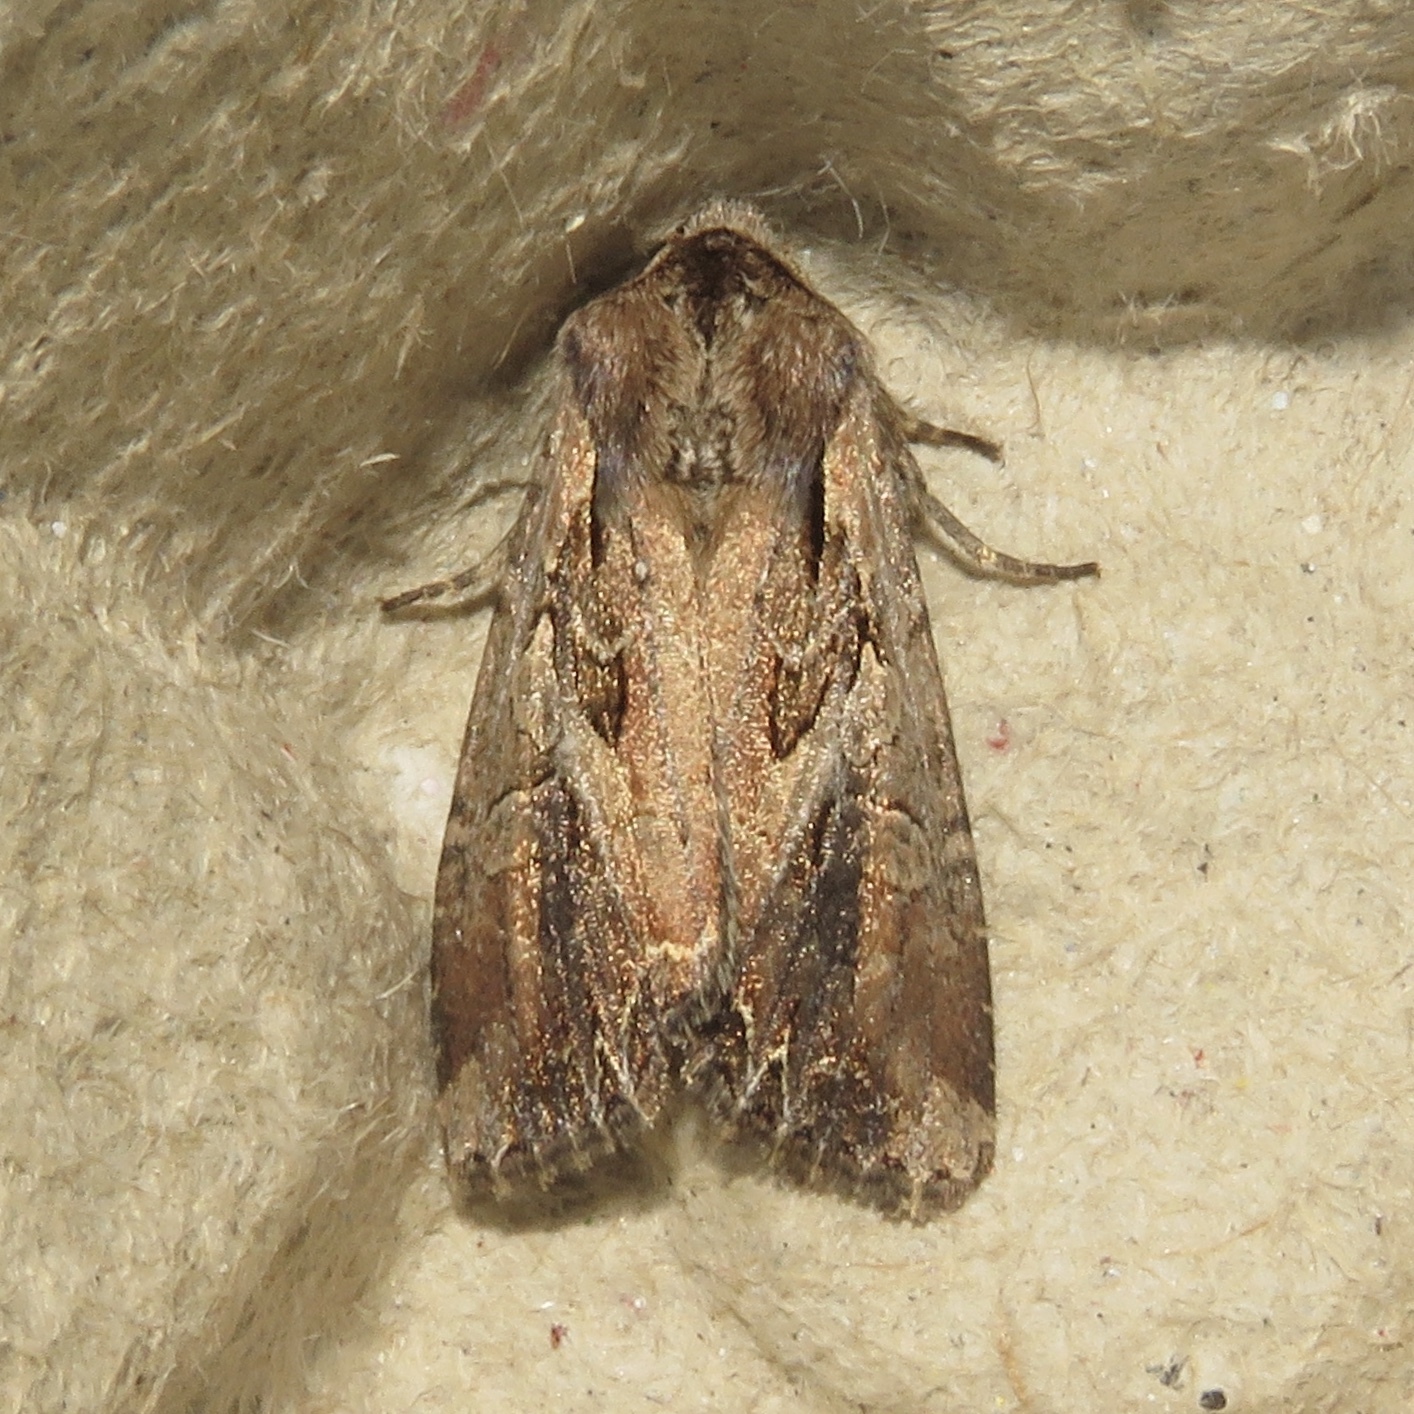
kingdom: Animalia
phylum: Arthropoda
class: Insecta
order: Lepidoptera
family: Noctuidae
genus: Lacanobia
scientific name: Lacanobia atlantica
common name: Atlantic arches moth
